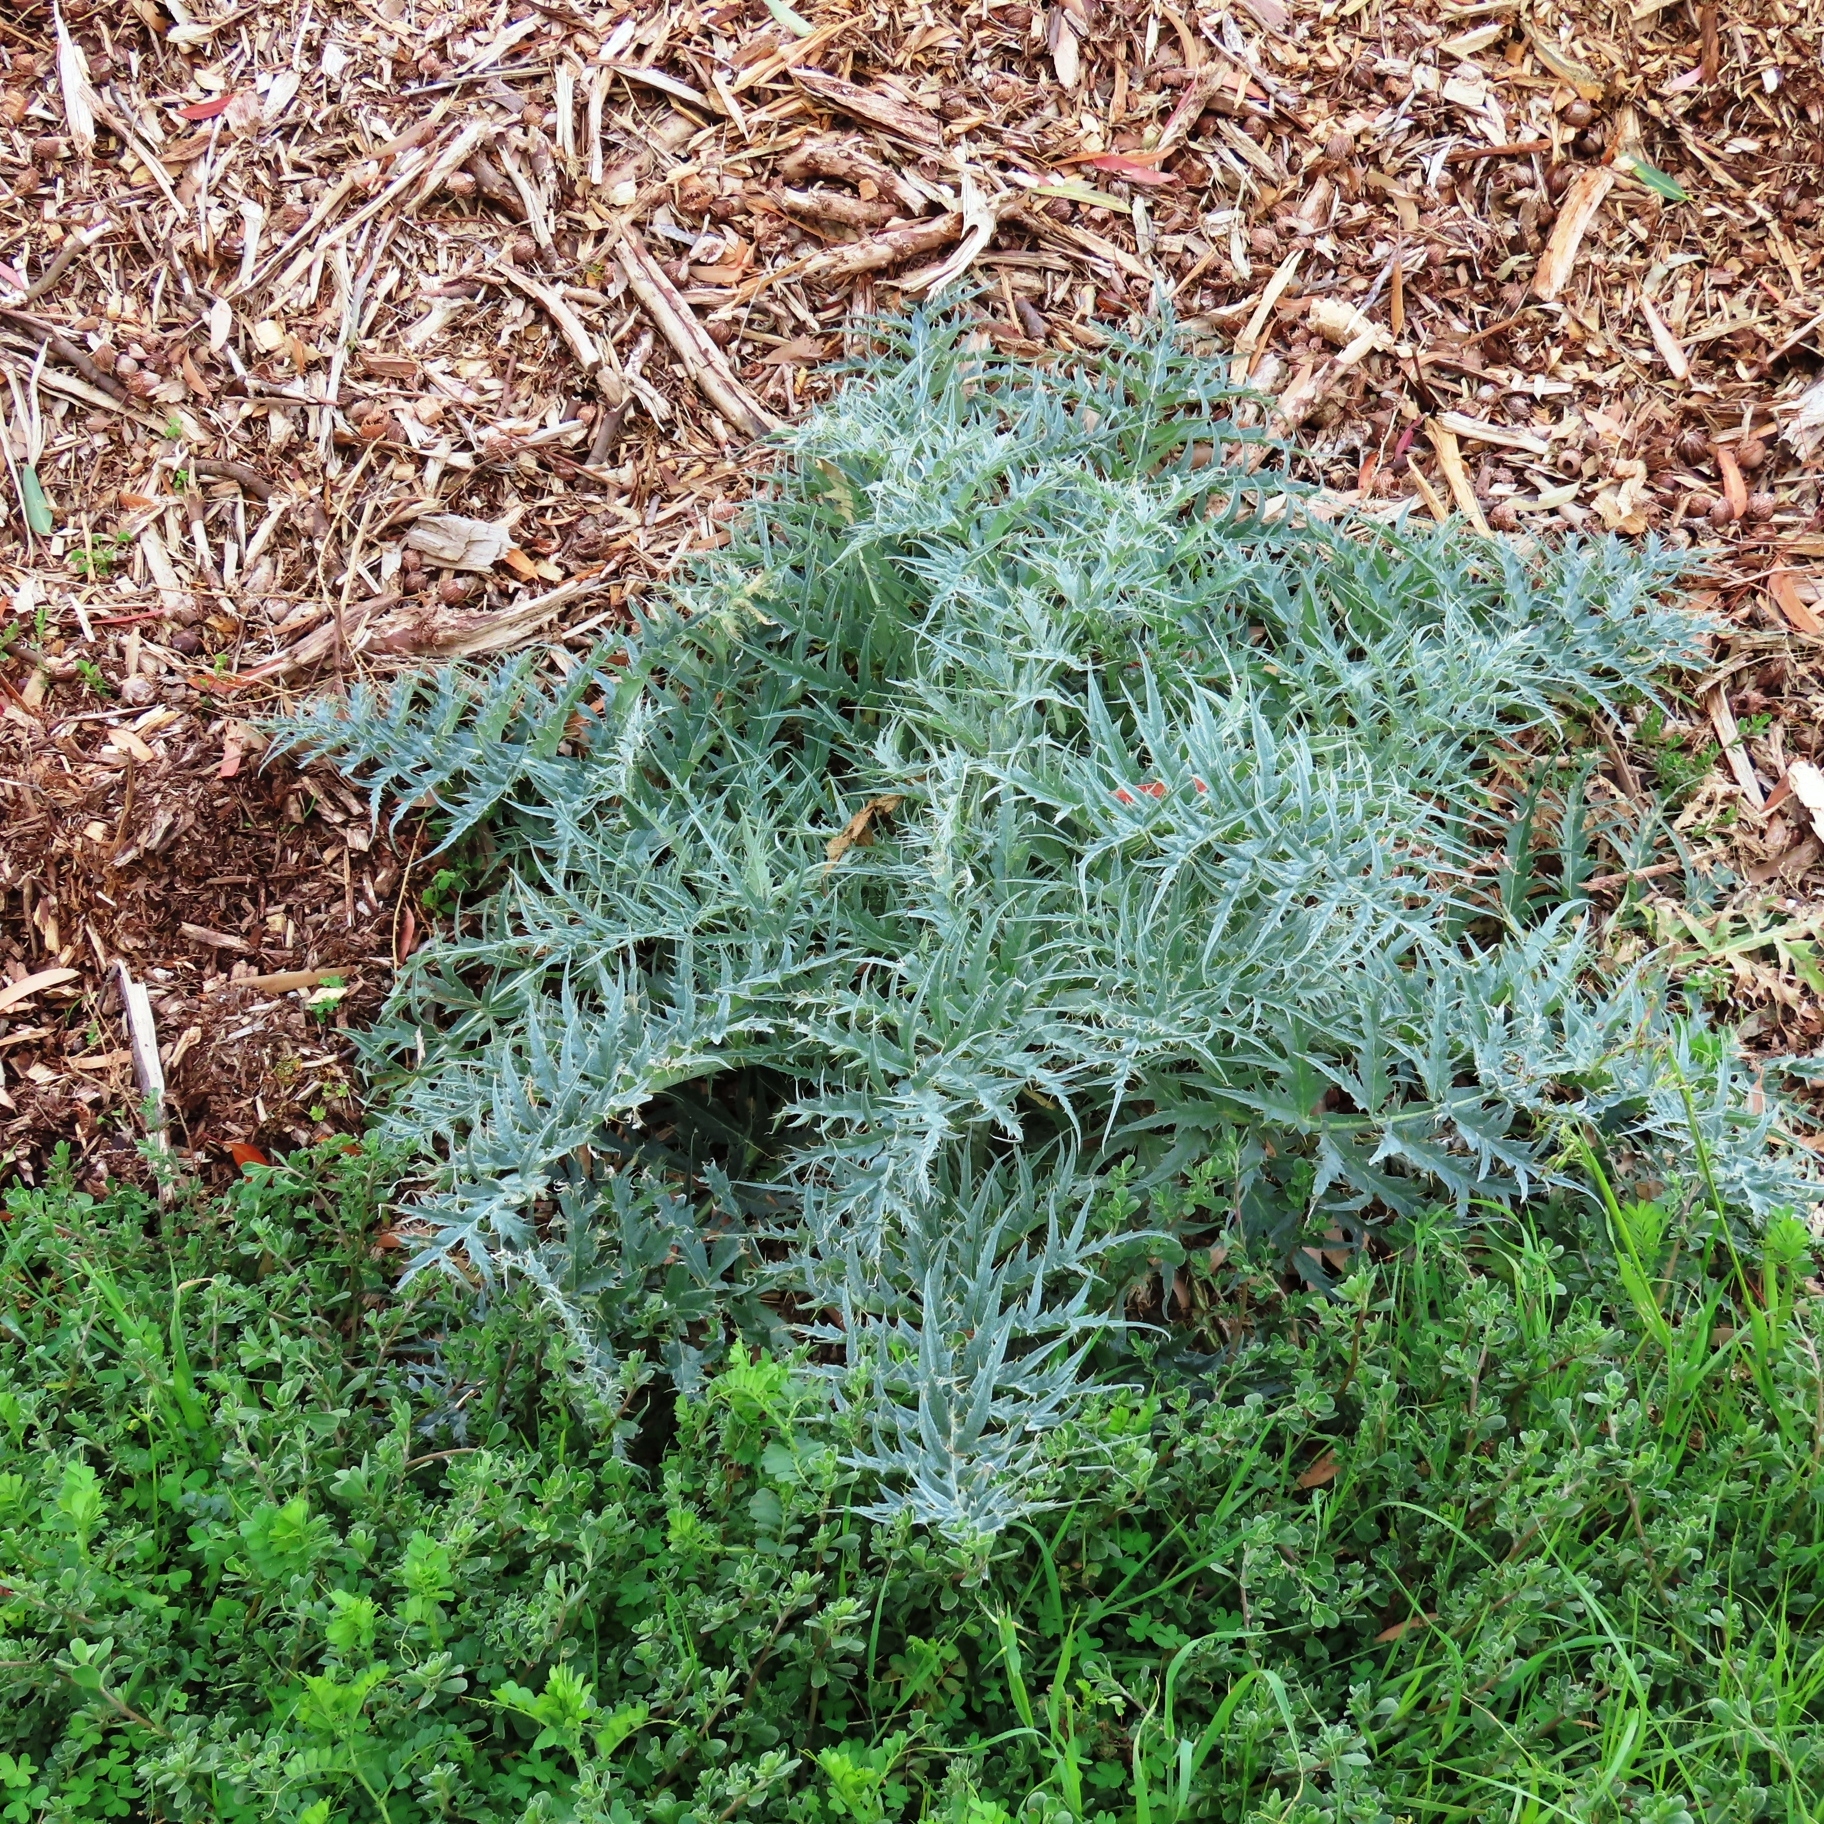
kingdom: Plantae
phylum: Tracheophyta
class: Magnoliopsida
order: Asterales
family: Asteraceae
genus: Cynara
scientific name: Cynara cardunculus
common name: Globe artichoke
